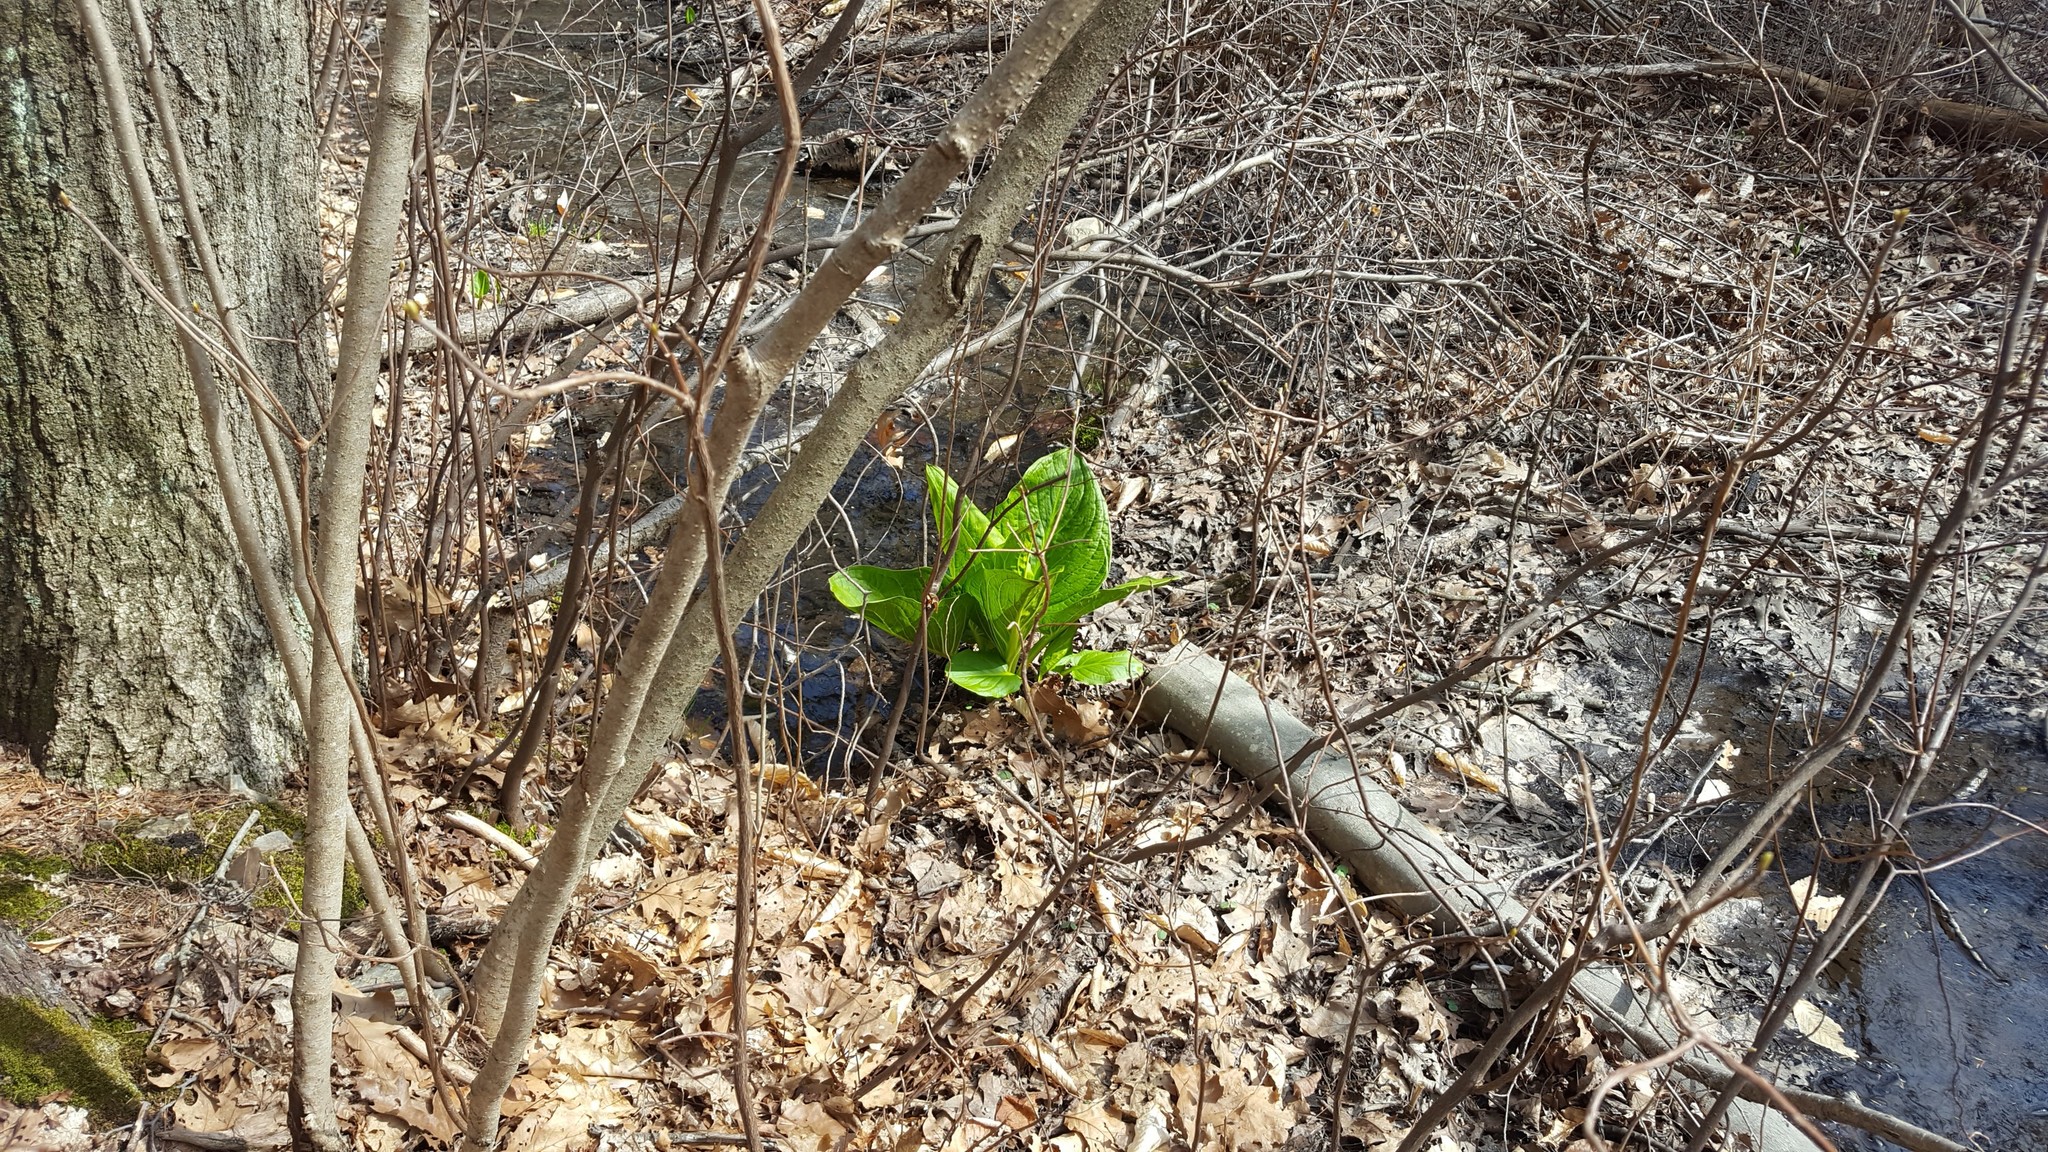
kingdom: Plantae
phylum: Tracheophyta
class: Liliopsida
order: Alismatales
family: Araceae
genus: Symplocarpus
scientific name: Symplocarpus foetidus
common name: Eastern skunk cabbage
